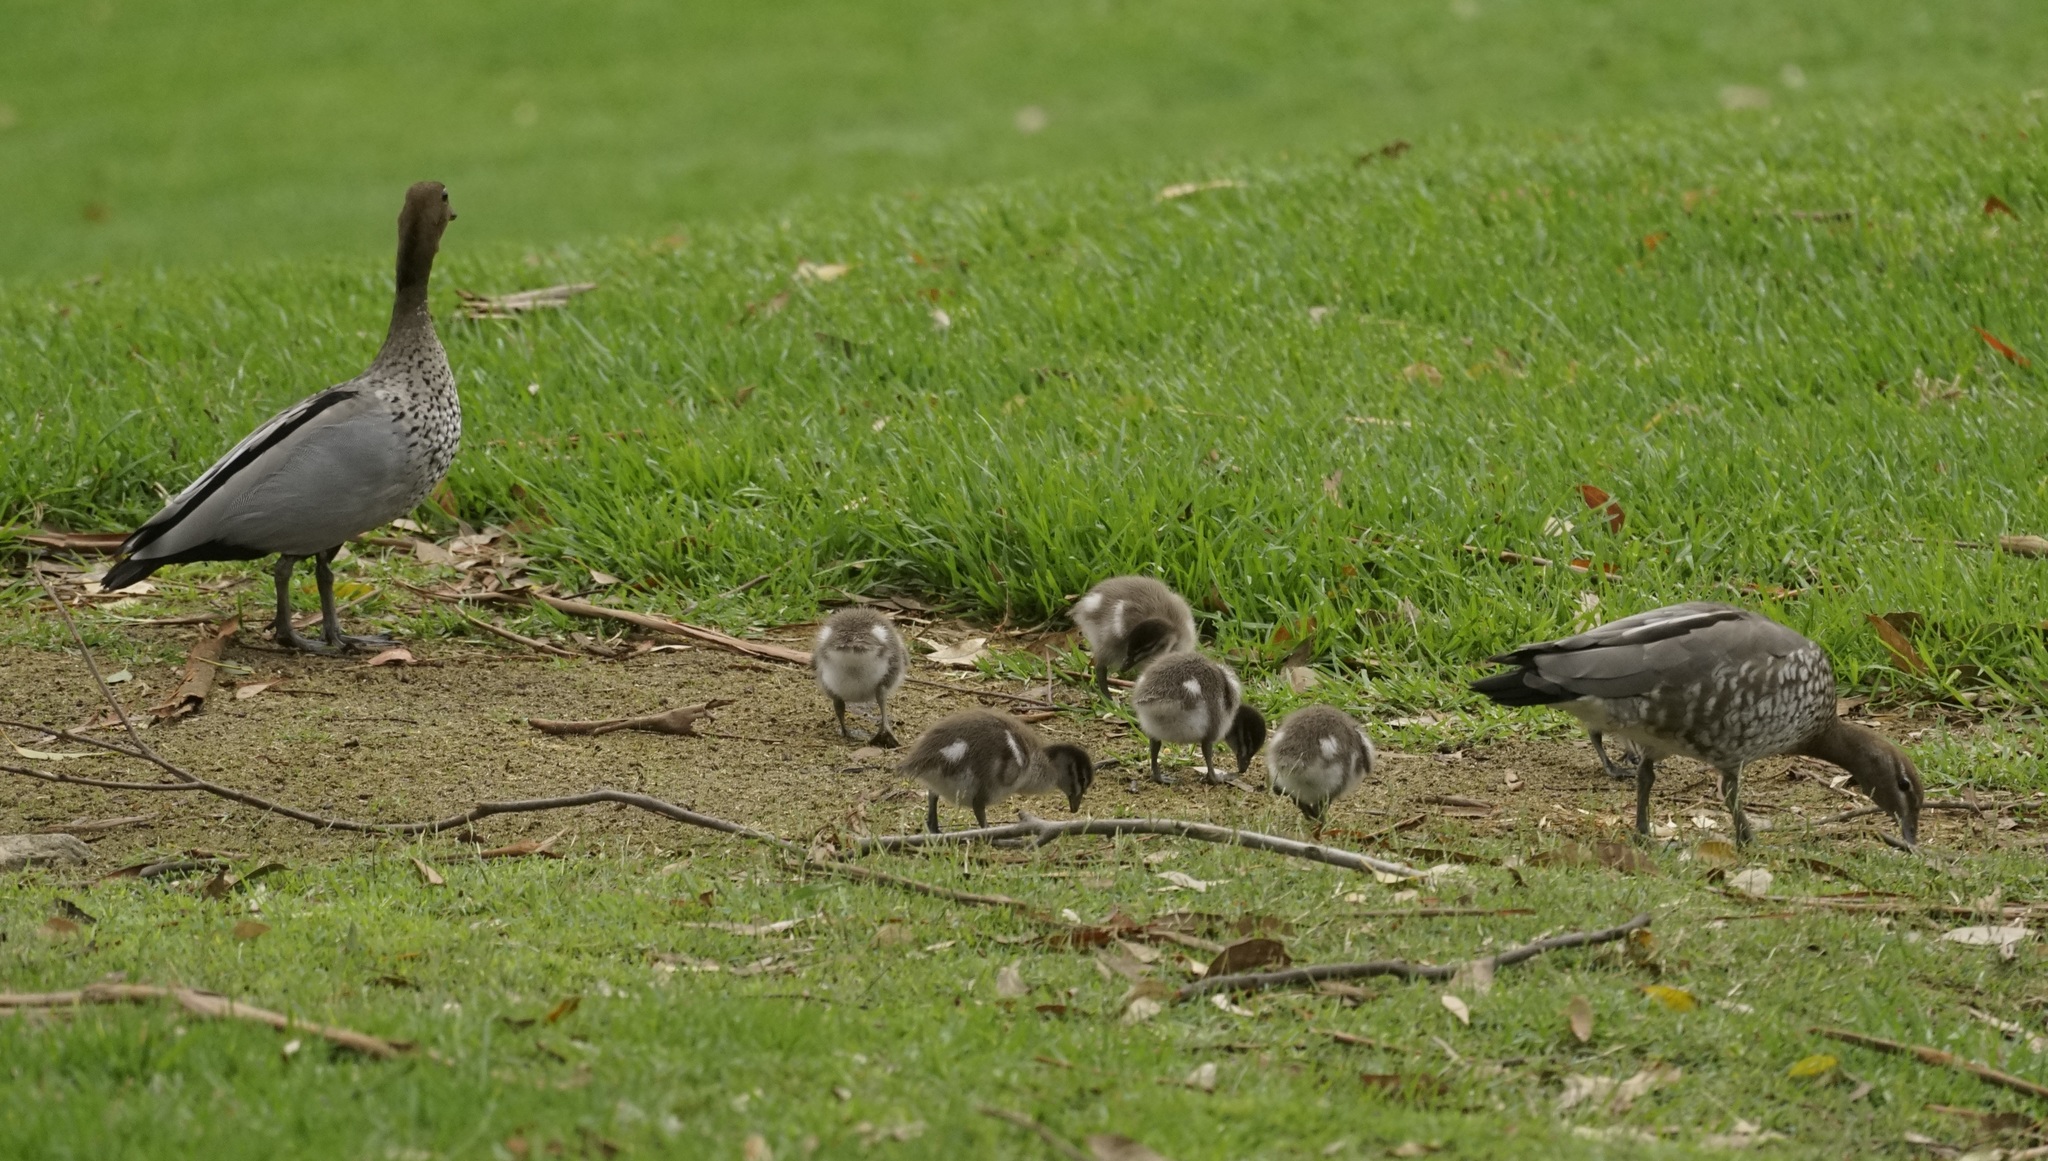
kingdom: Animalia
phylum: Chordata
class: Aves
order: Anseriformes
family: Anatidae
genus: Chenonetta
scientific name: Chenonetta jubata
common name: Maned duck
